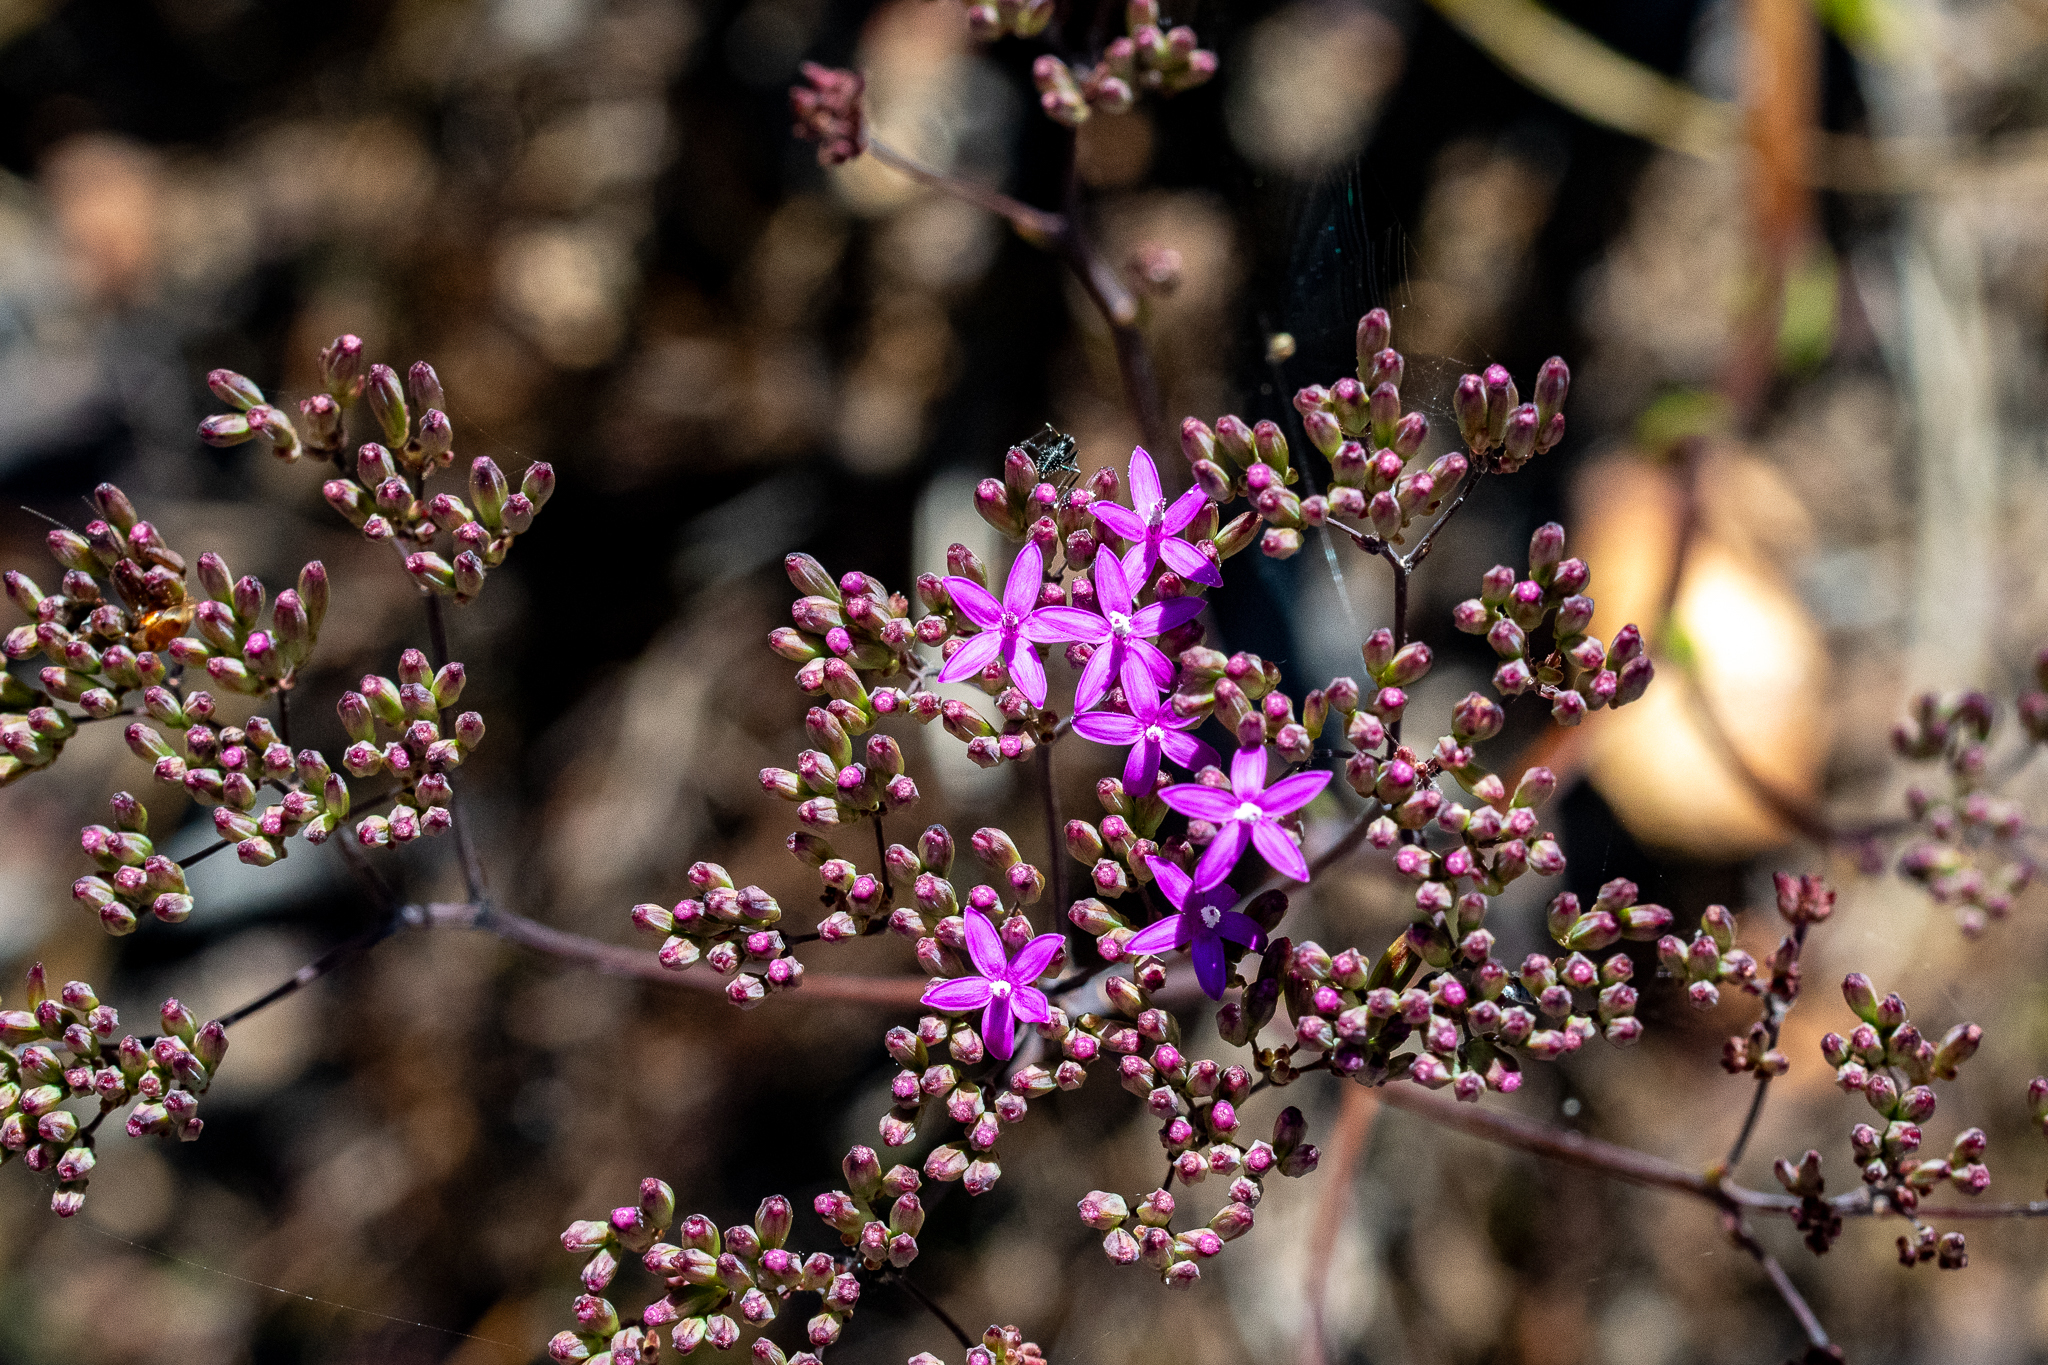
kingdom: Plantae
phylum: Tracheophyta
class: Magnoliopsida
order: Asterales
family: Asteraceae
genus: Corymbium
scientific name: Corymbium glabrum
